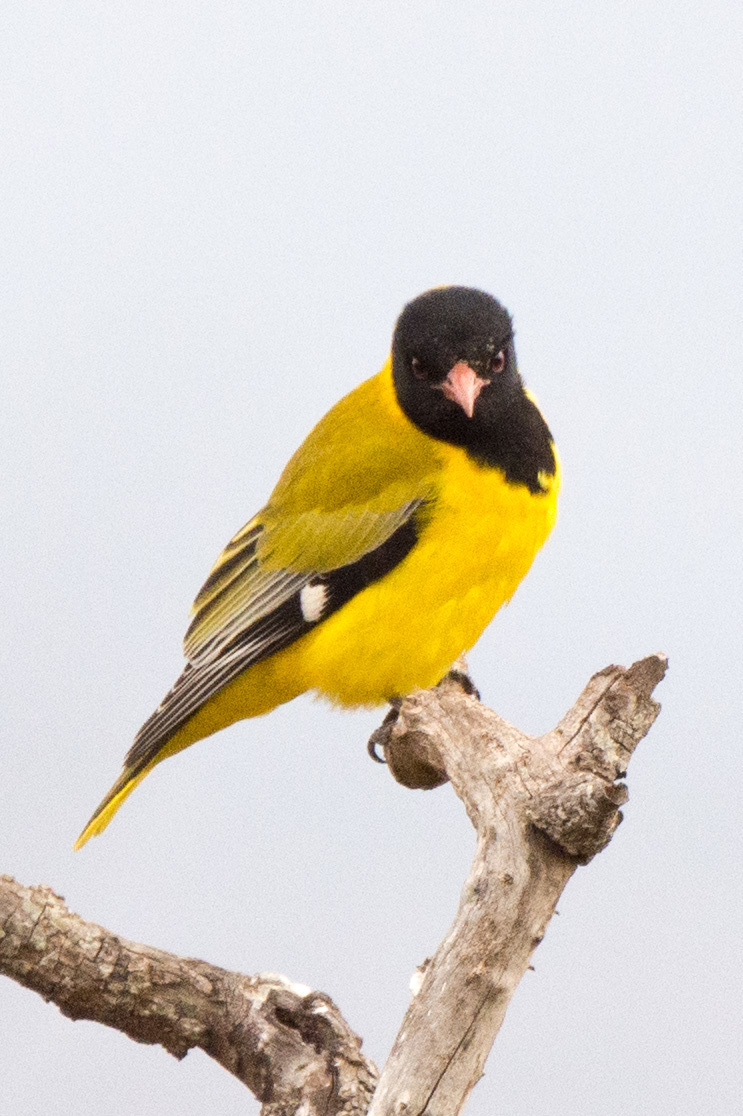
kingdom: Animalia
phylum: Chordata
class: Aves
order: Passeriformes
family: Oriolidae
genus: Oriolus
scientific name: Oriolus larvatus
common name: Black-headed oriole
